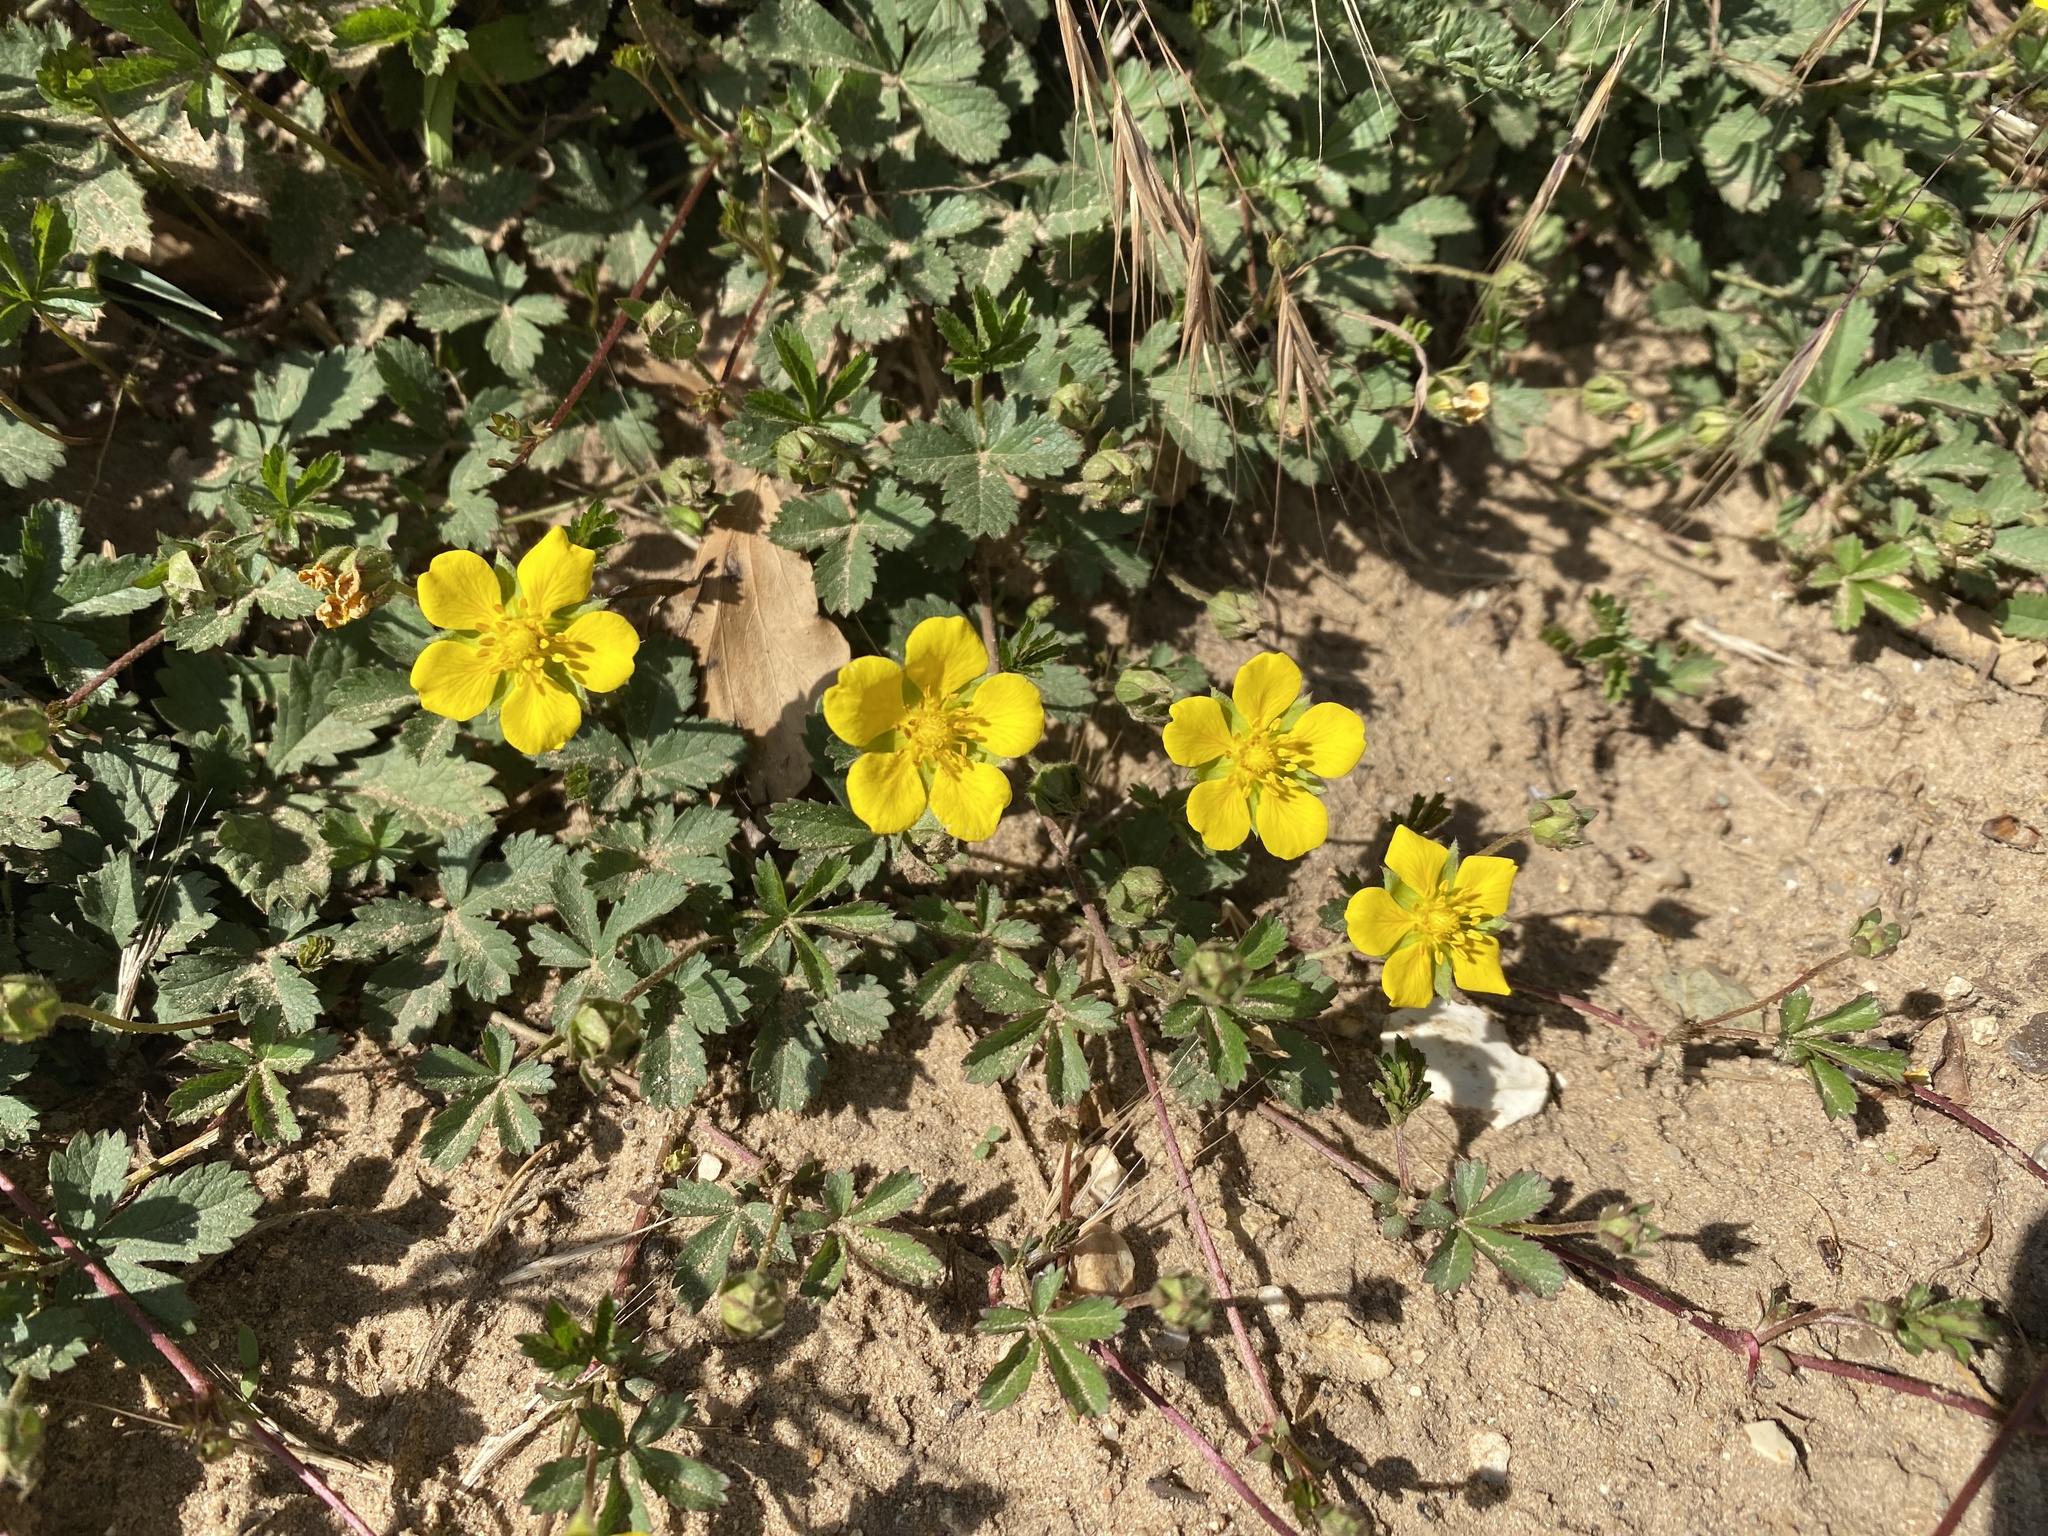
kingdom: Plantae
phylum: Tracheophyta
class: Magnoliopsida
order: Rosales
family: Rosaceae
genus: Potentilla
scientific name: Potentilla reptans
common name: Creeping cinquefoil
